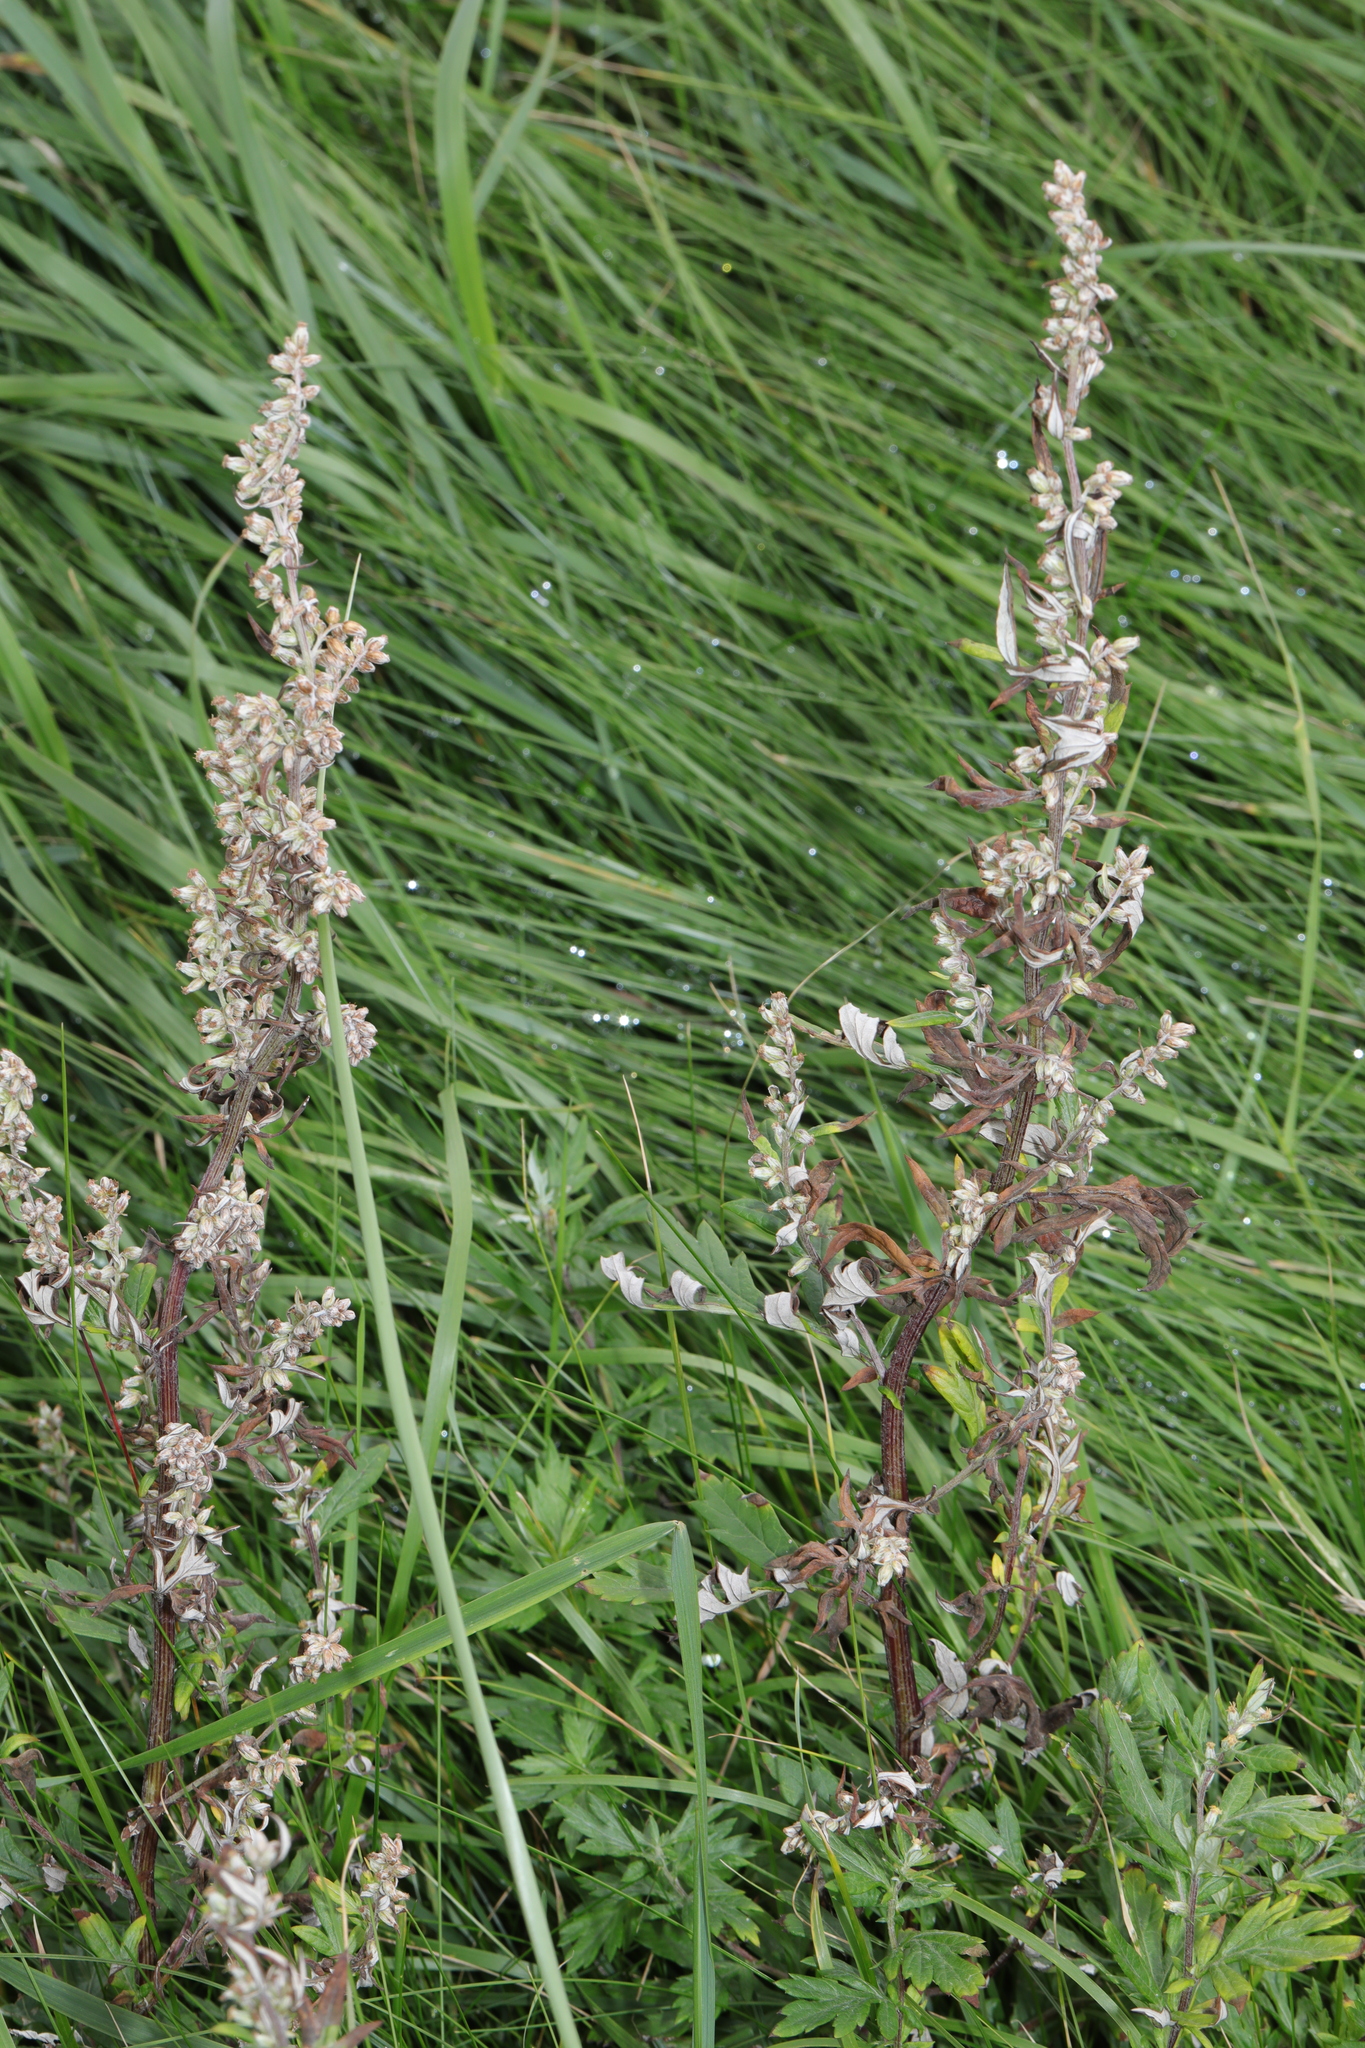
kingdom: Plantae
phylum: Tracheophyta
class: Magnoliopsida
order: Asterales
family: Asteraceae
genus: Artemisia
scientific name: Artemisia vulgaris
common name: Mugwort
